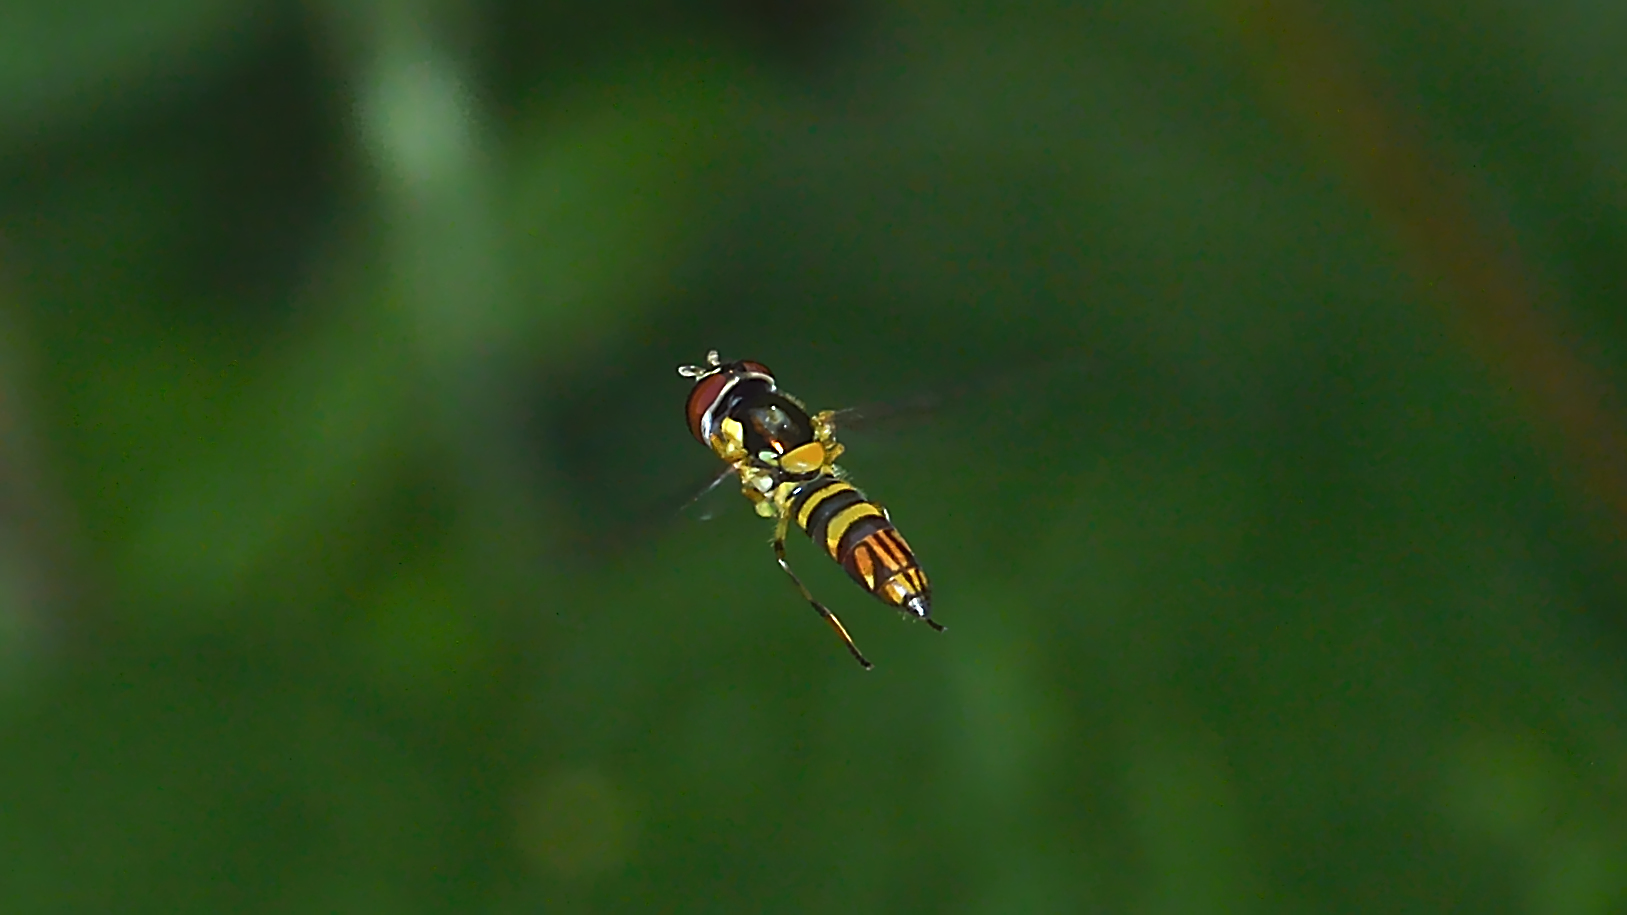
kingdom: Animalia
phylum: Arthropoda
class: Insecta
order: Diptera
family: Syrphidae
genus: Allograpta
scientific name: Allograpta obliqua
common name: Common oblique syrphid
